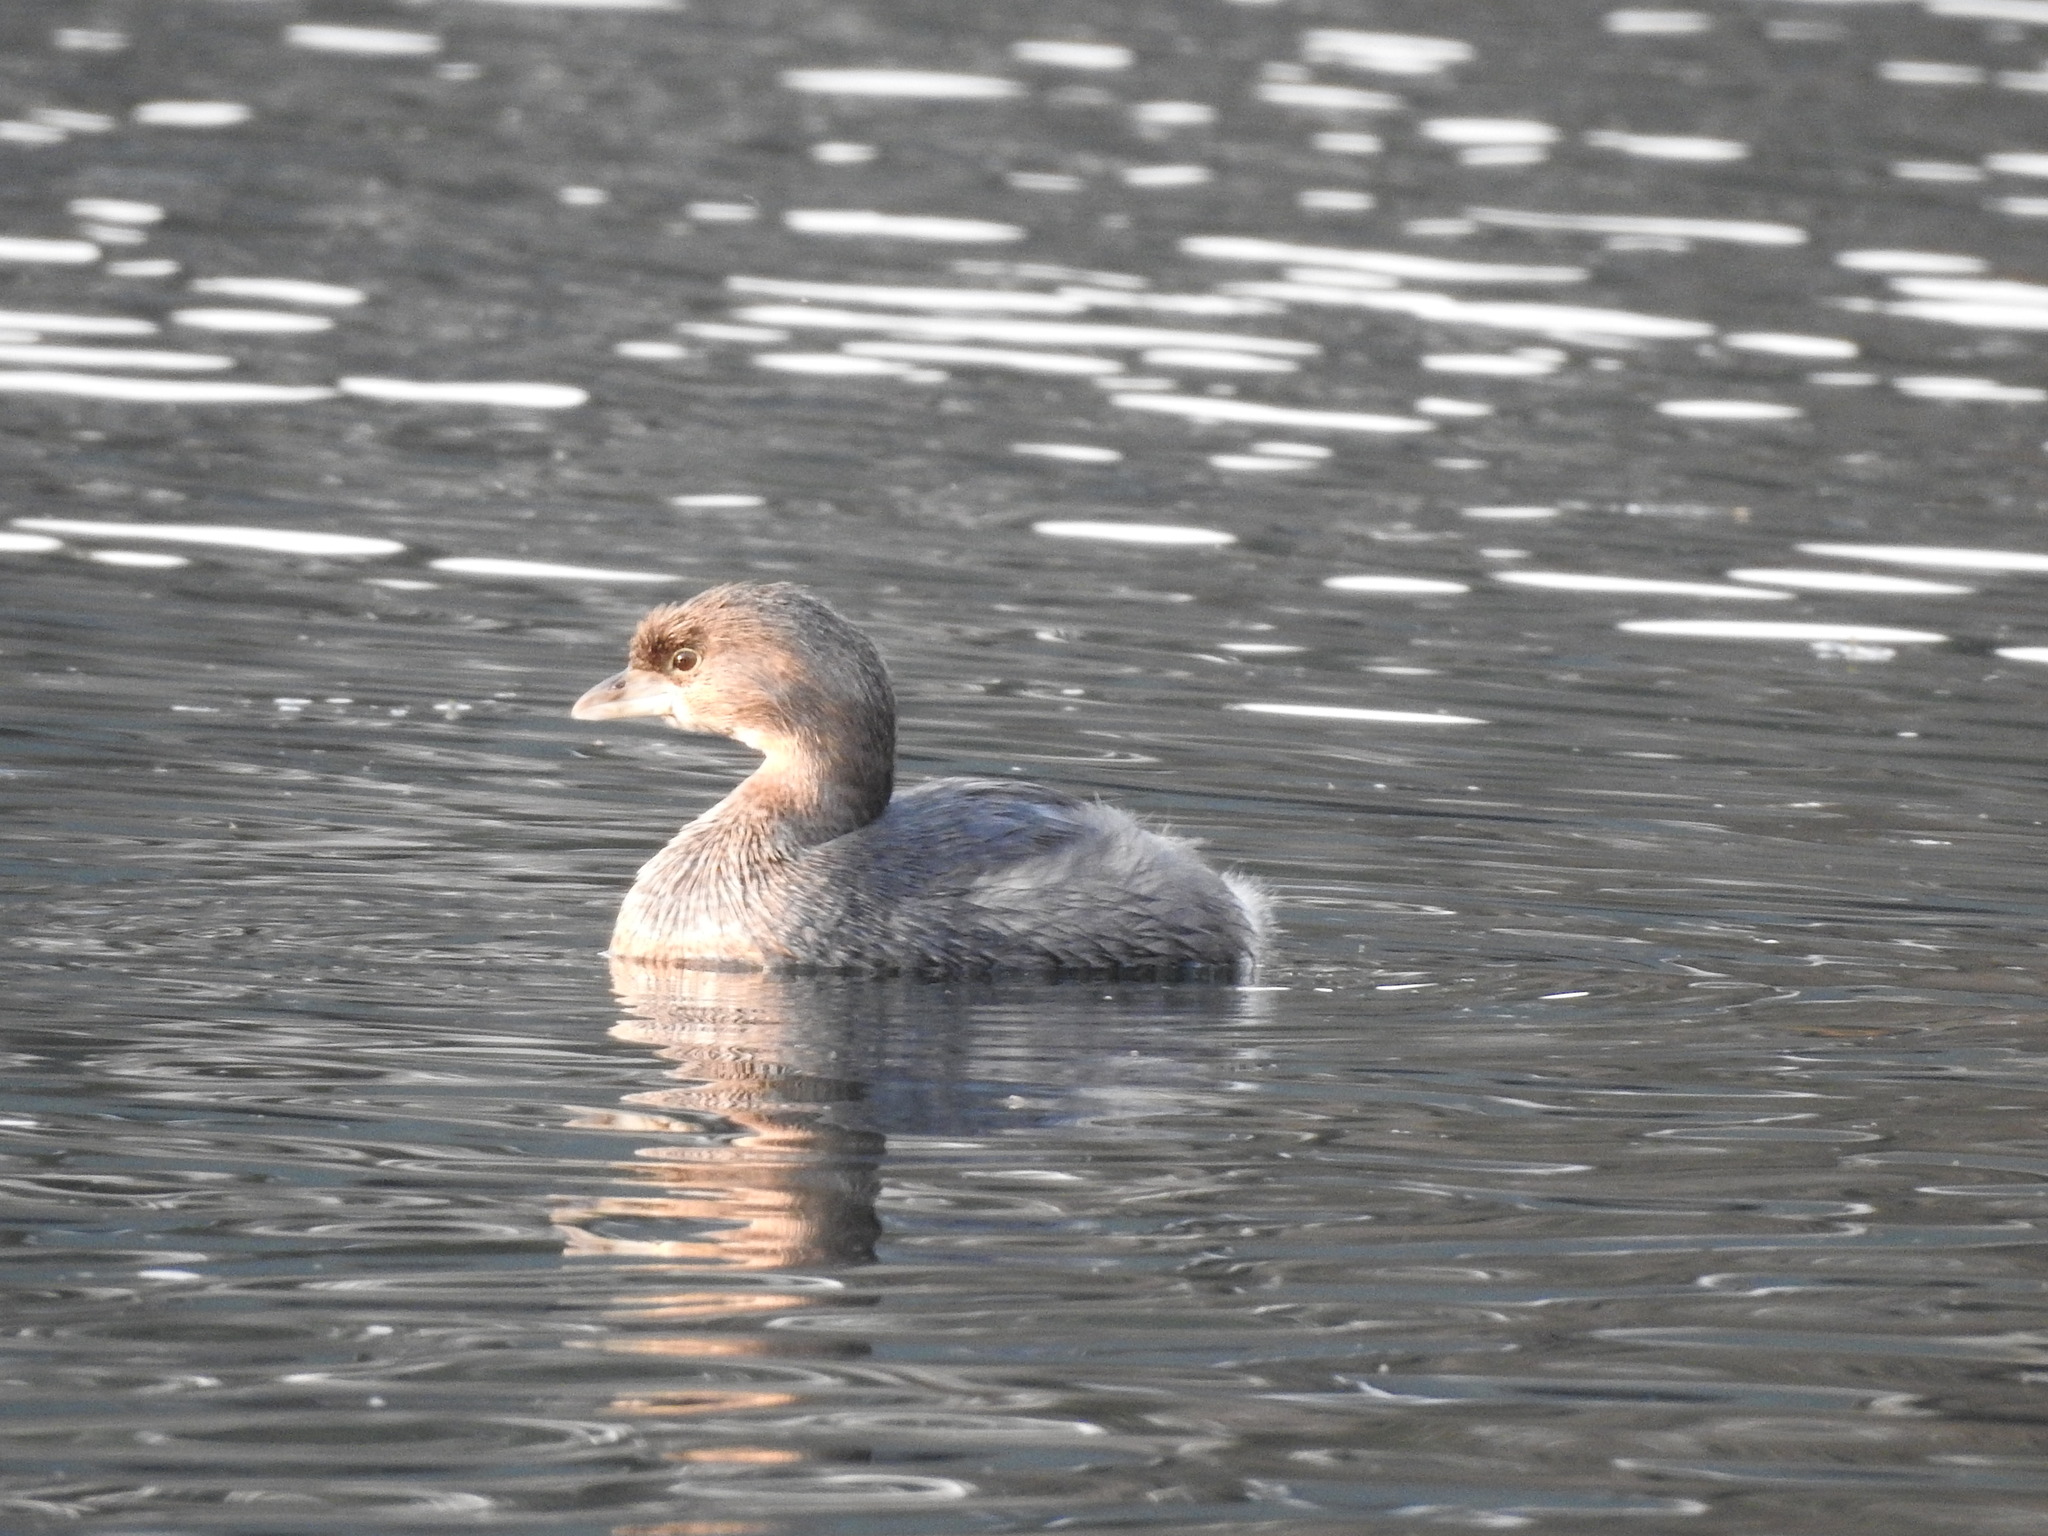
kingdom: Animalia
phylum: Chordata
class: Aves
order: Podicipediformes
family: Podicipedidae
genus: Podilymbus
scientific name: Podilymbus podiceps
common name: Pied-billed grebe
